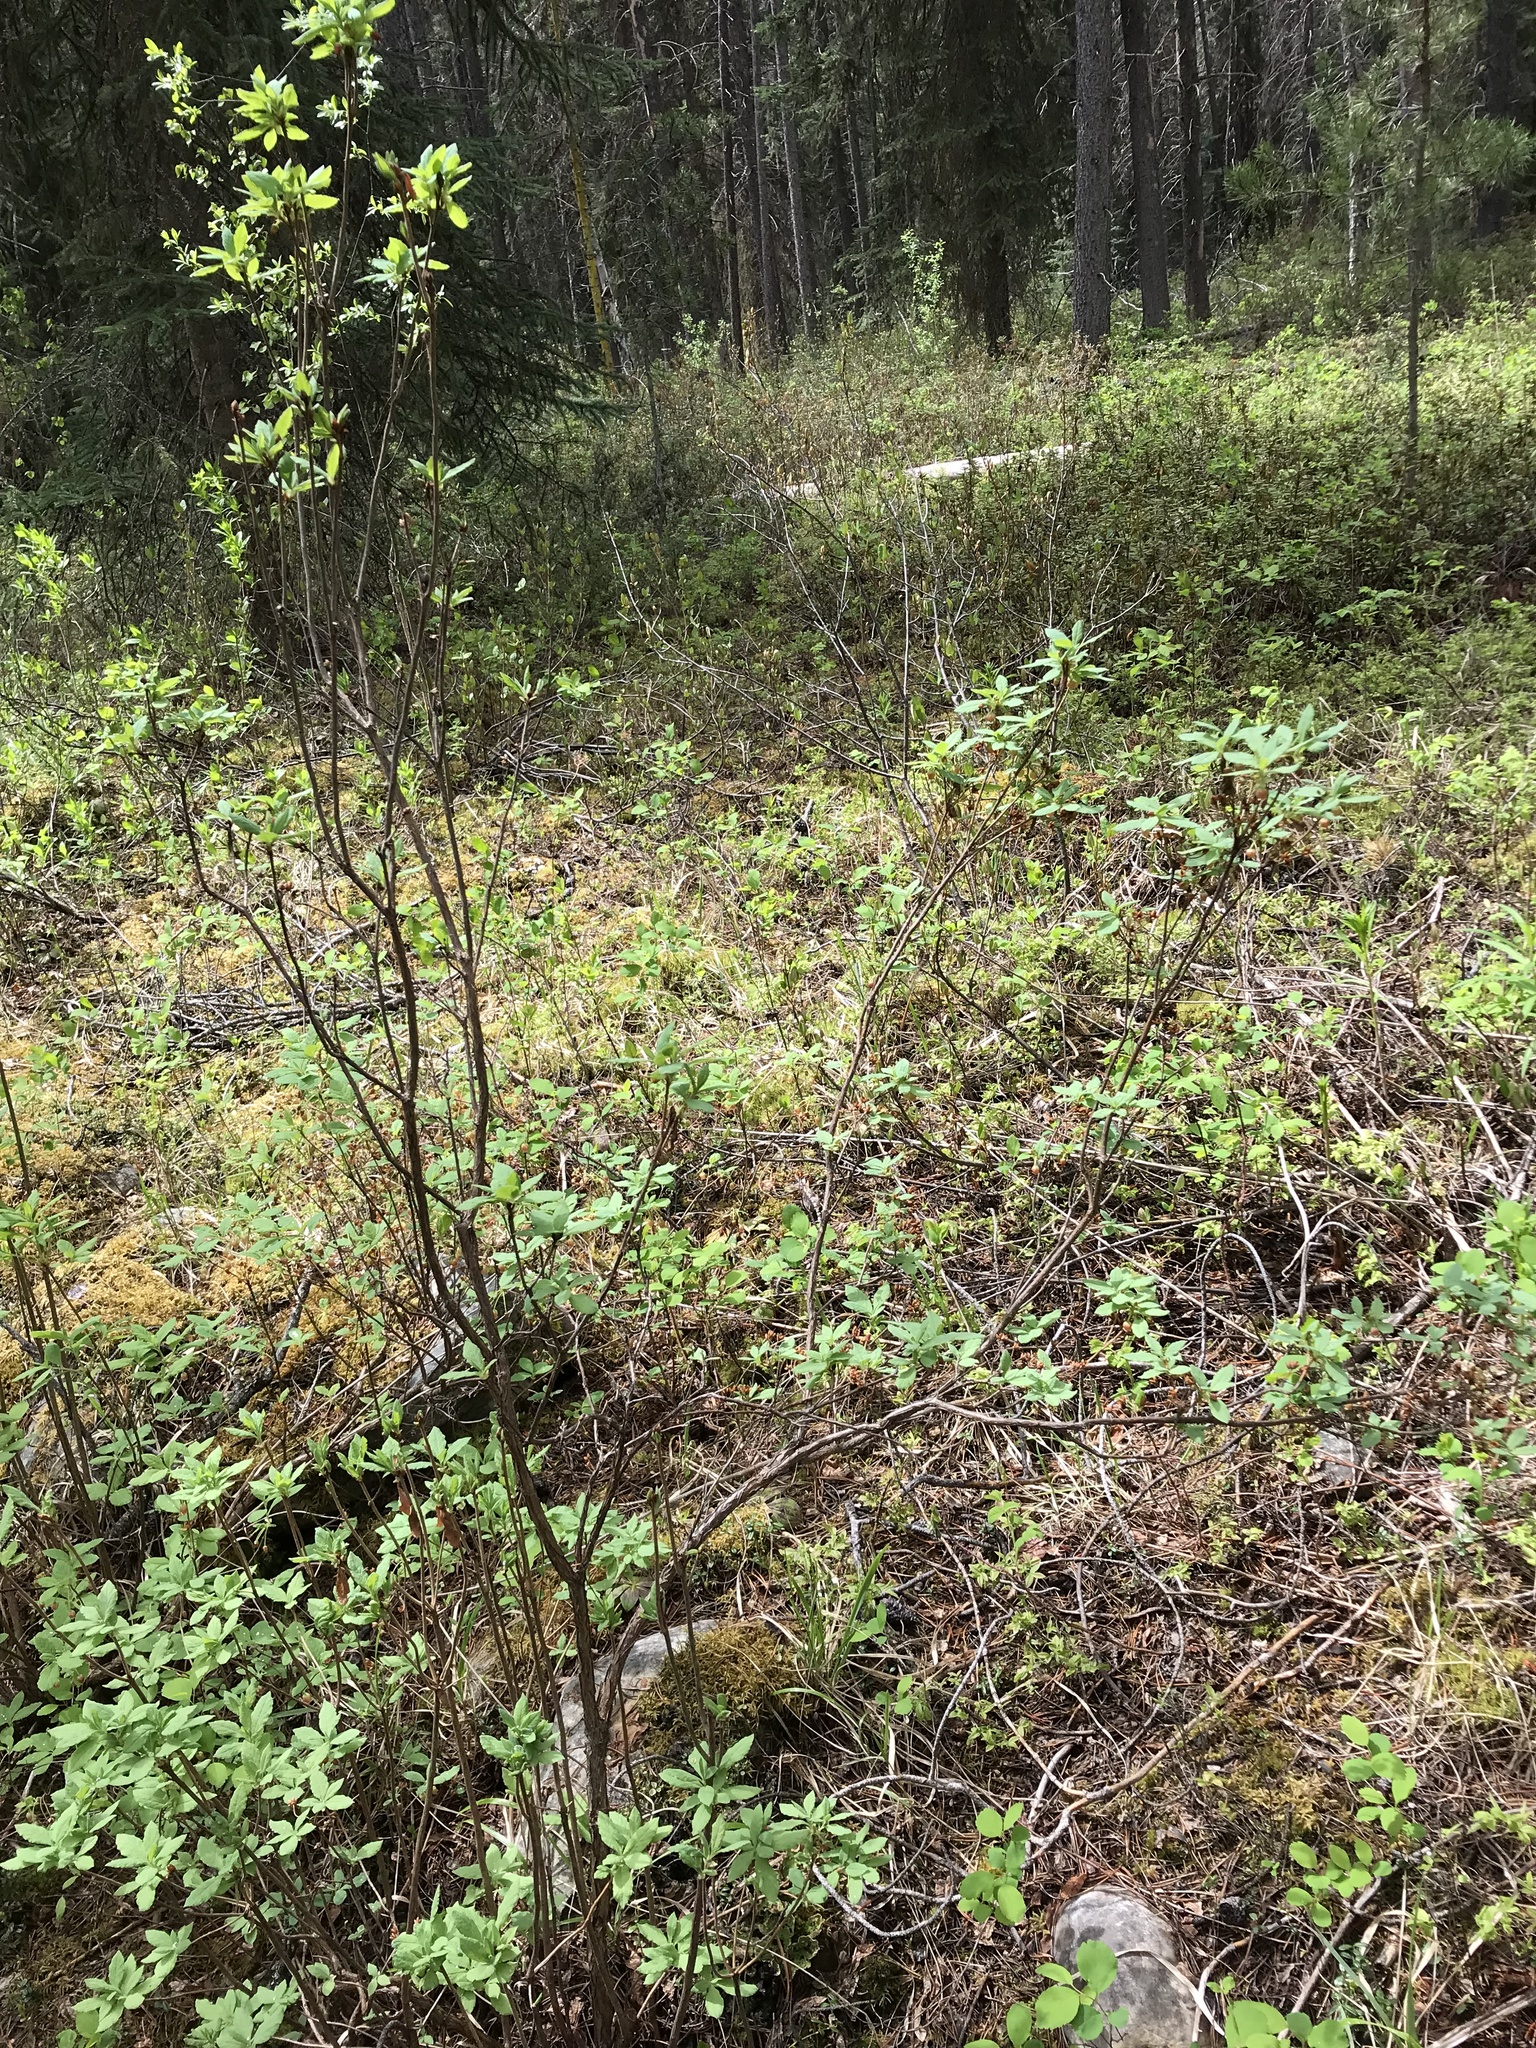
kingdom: Plantae
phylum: Tracheophyta
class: Magnoliopsida
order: Ericales
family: Ericaceae
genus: Rhododendron
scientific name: Rhododendron menziesii
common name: Pacific menziesia
